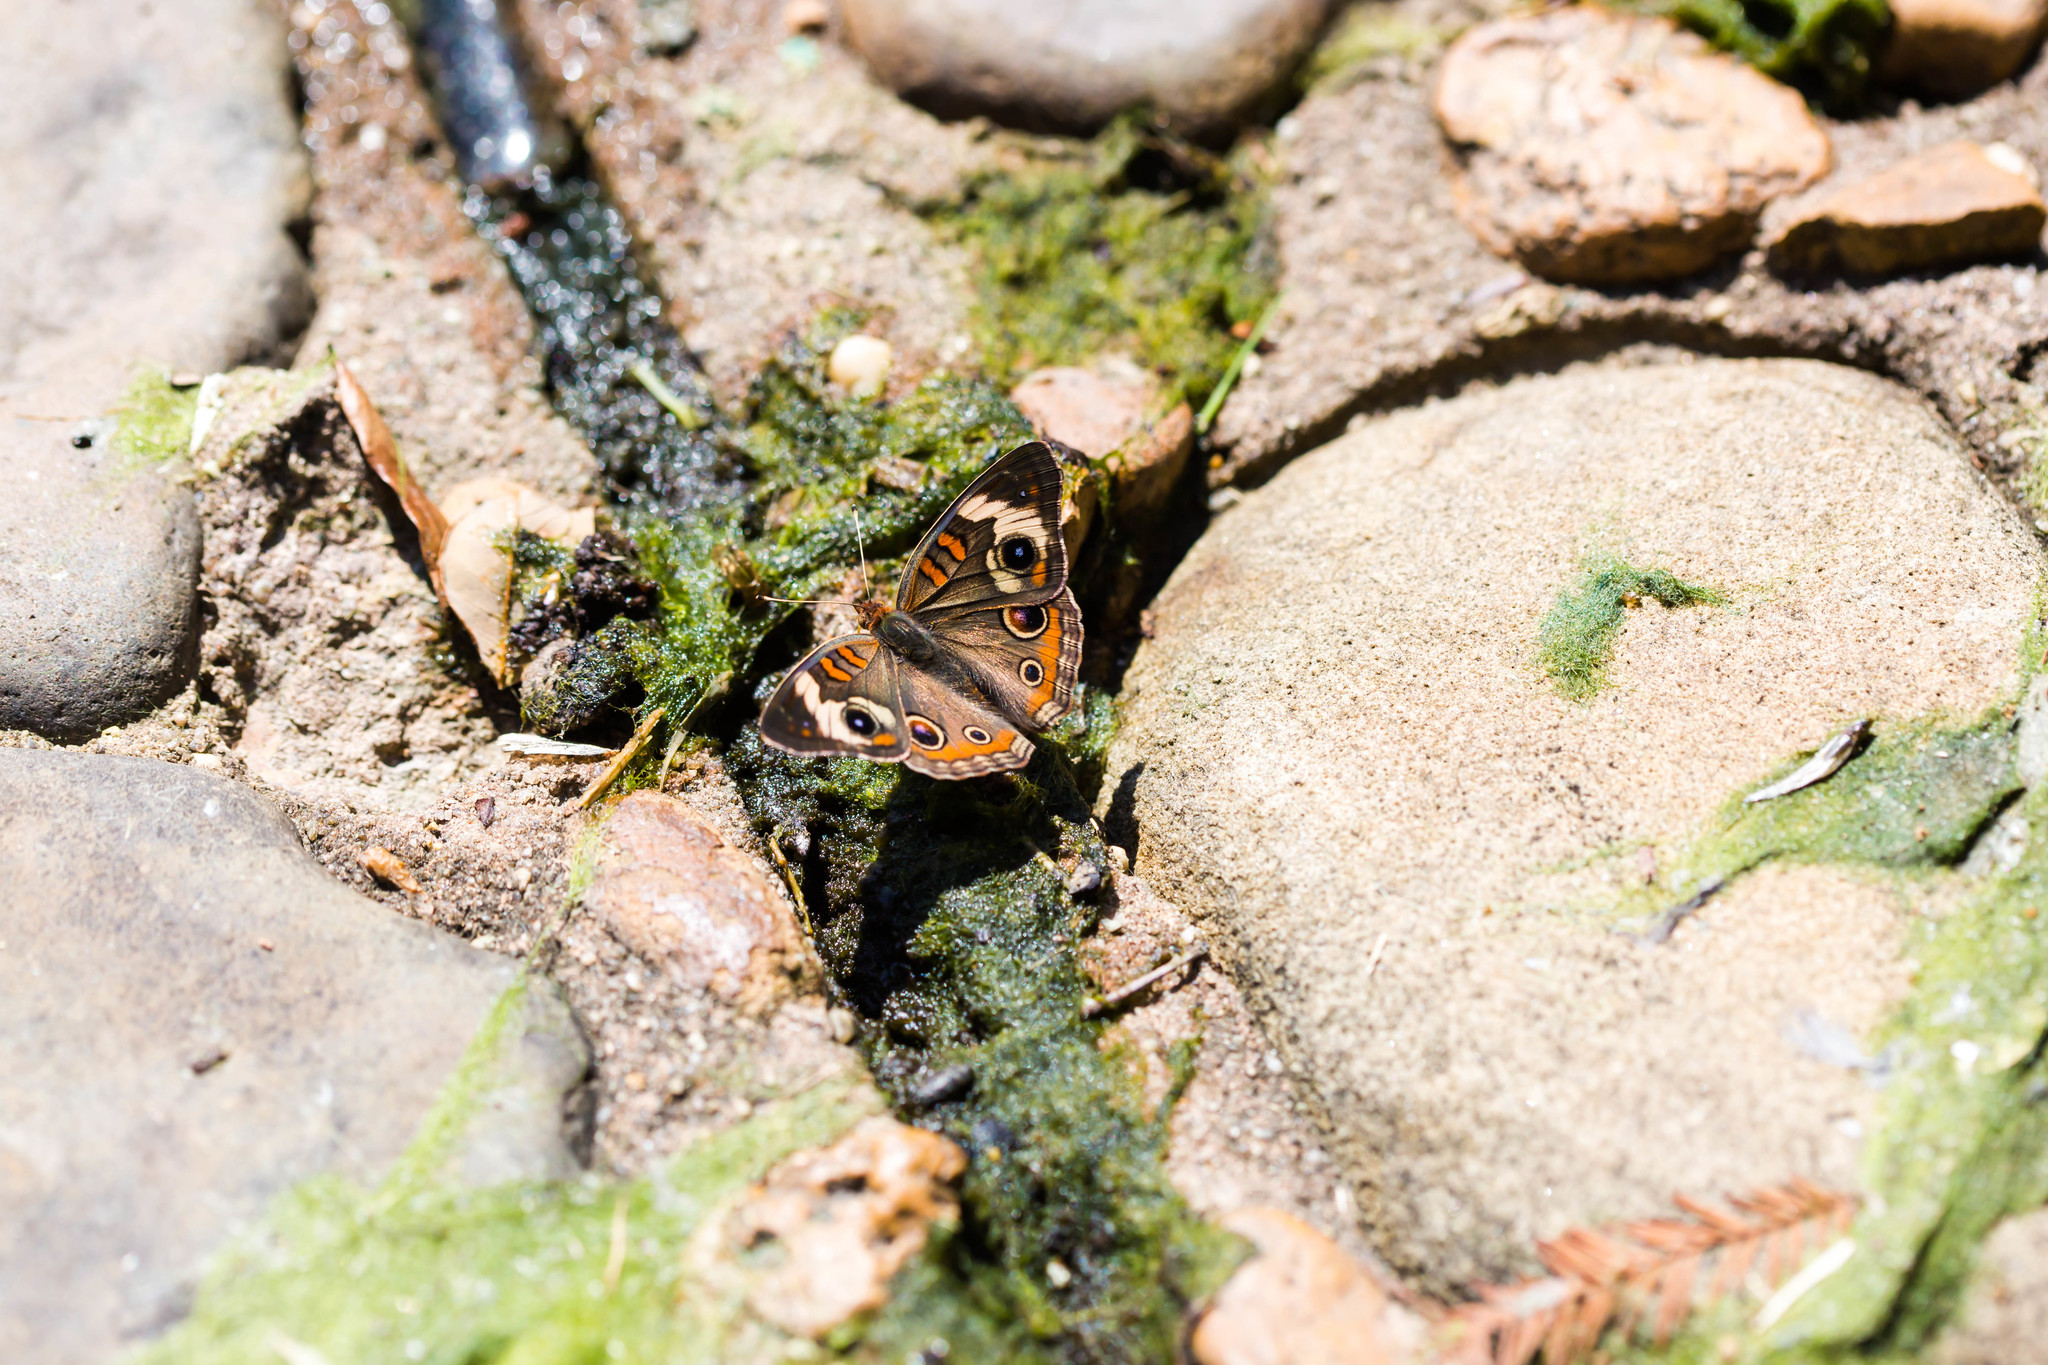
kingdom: Animalia
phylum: Arthropoda
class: Insecta
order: Lepidoptera
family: Nymphalidae
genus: Junonia
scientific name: Junonia coenia
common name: Common buckeye
